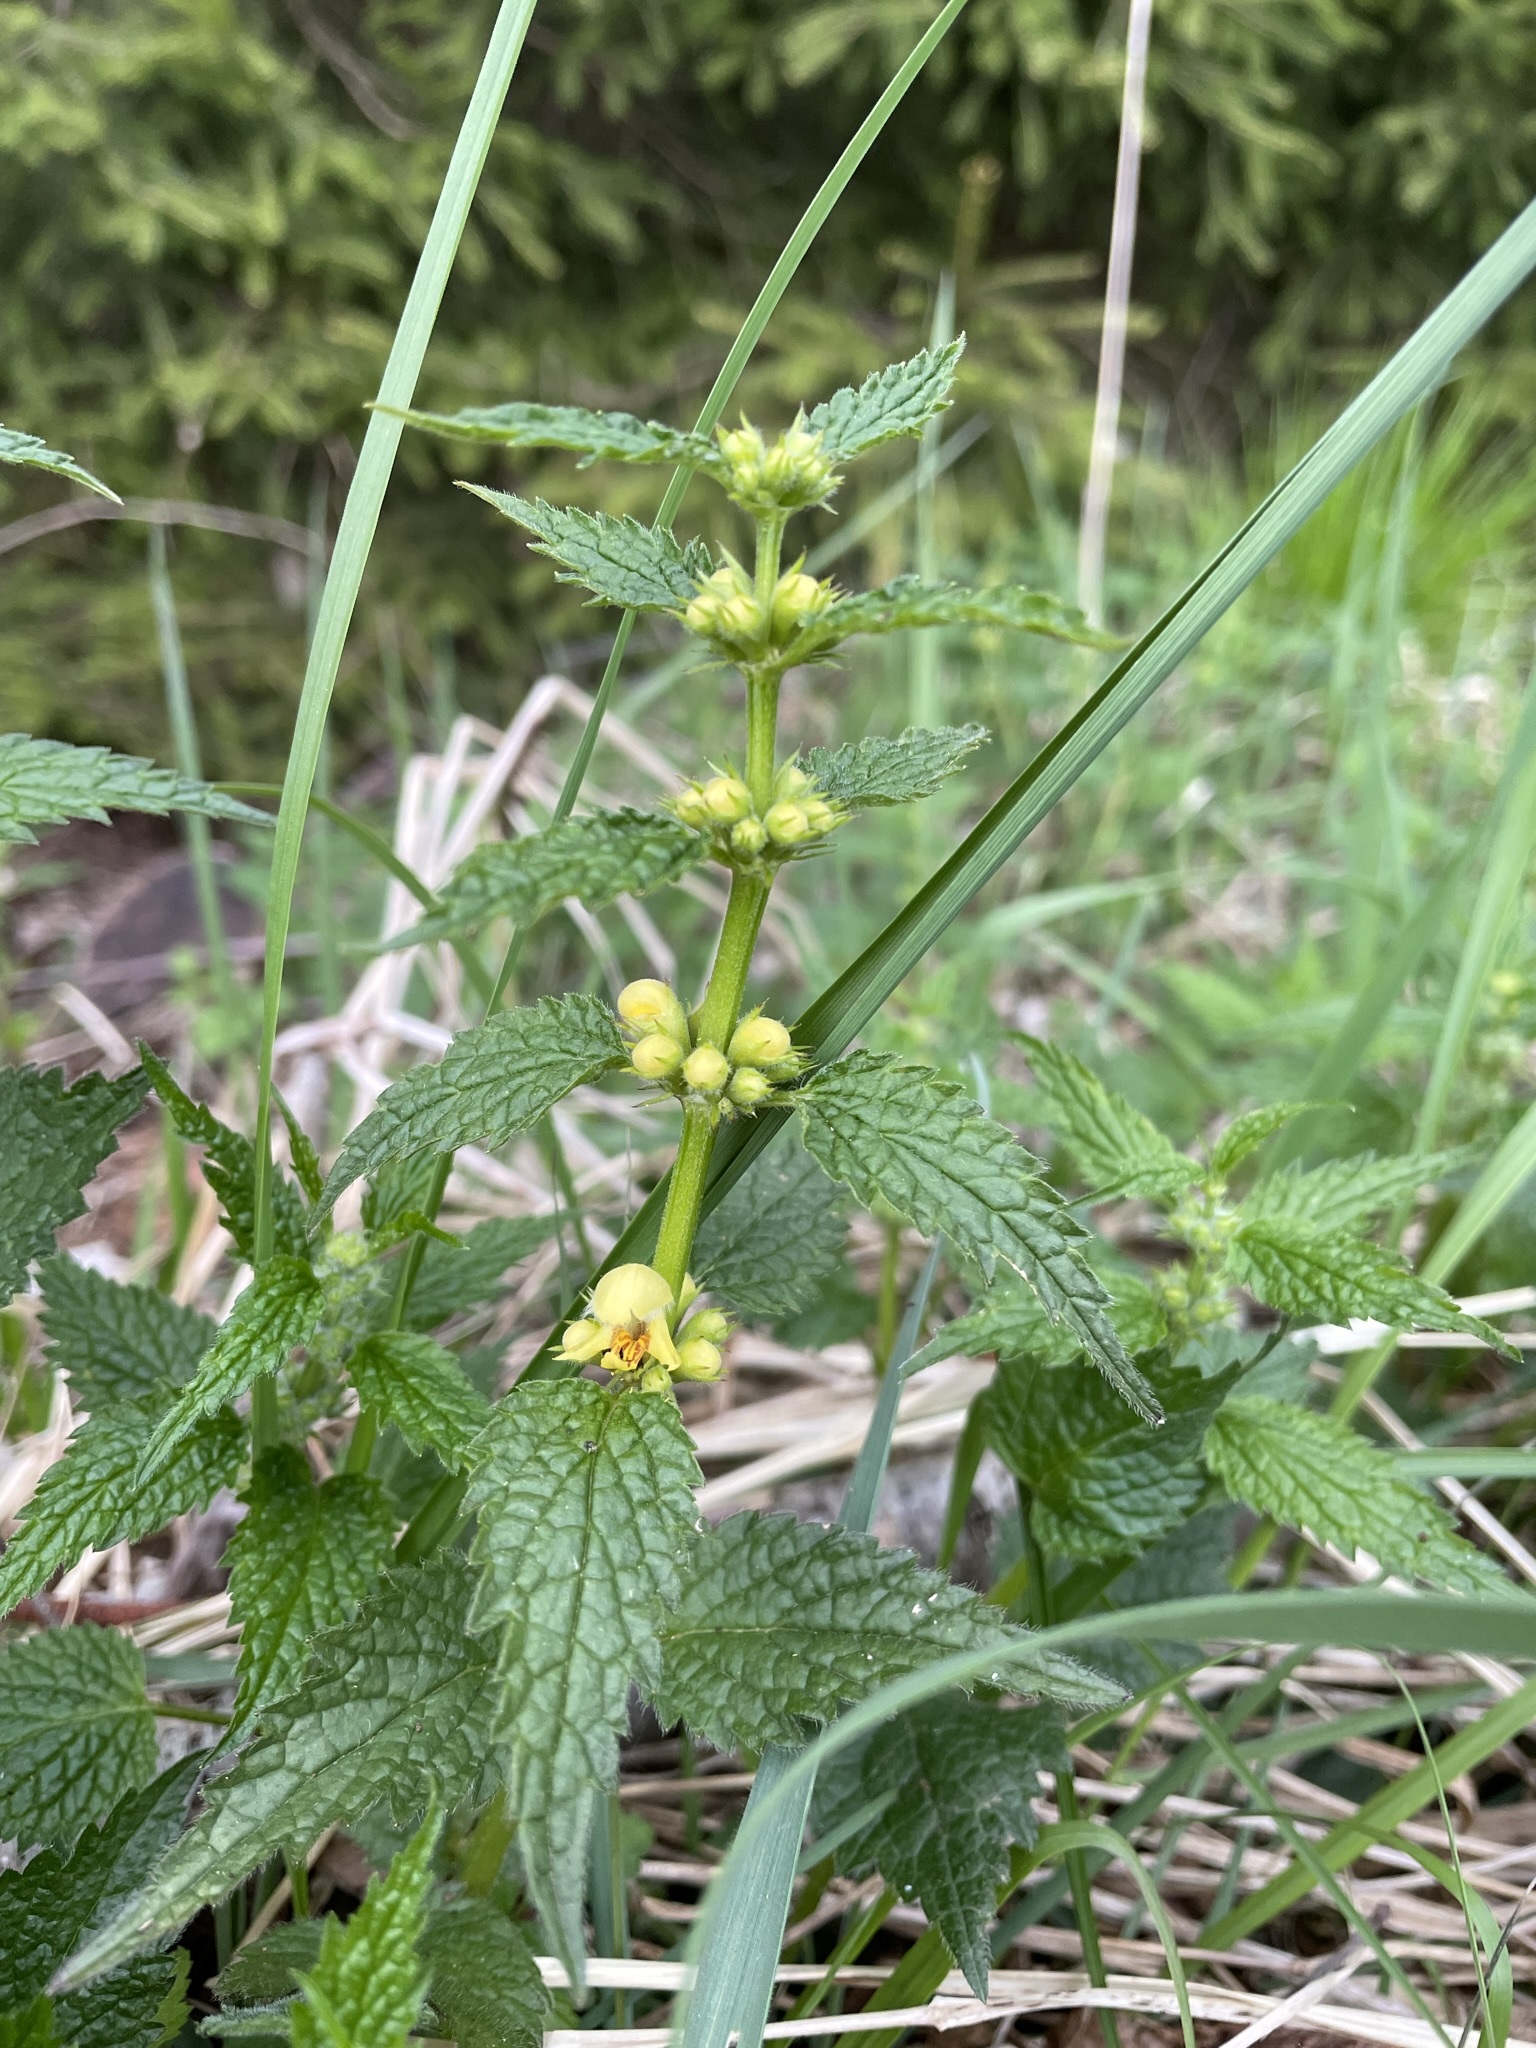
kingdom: Plantae
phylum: Tracheophyta
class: Magnoliopsida
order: Lamiales
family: Lamiaceae
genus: Lamium
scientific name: Lamium galeobdolon
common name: Yellow archangel
